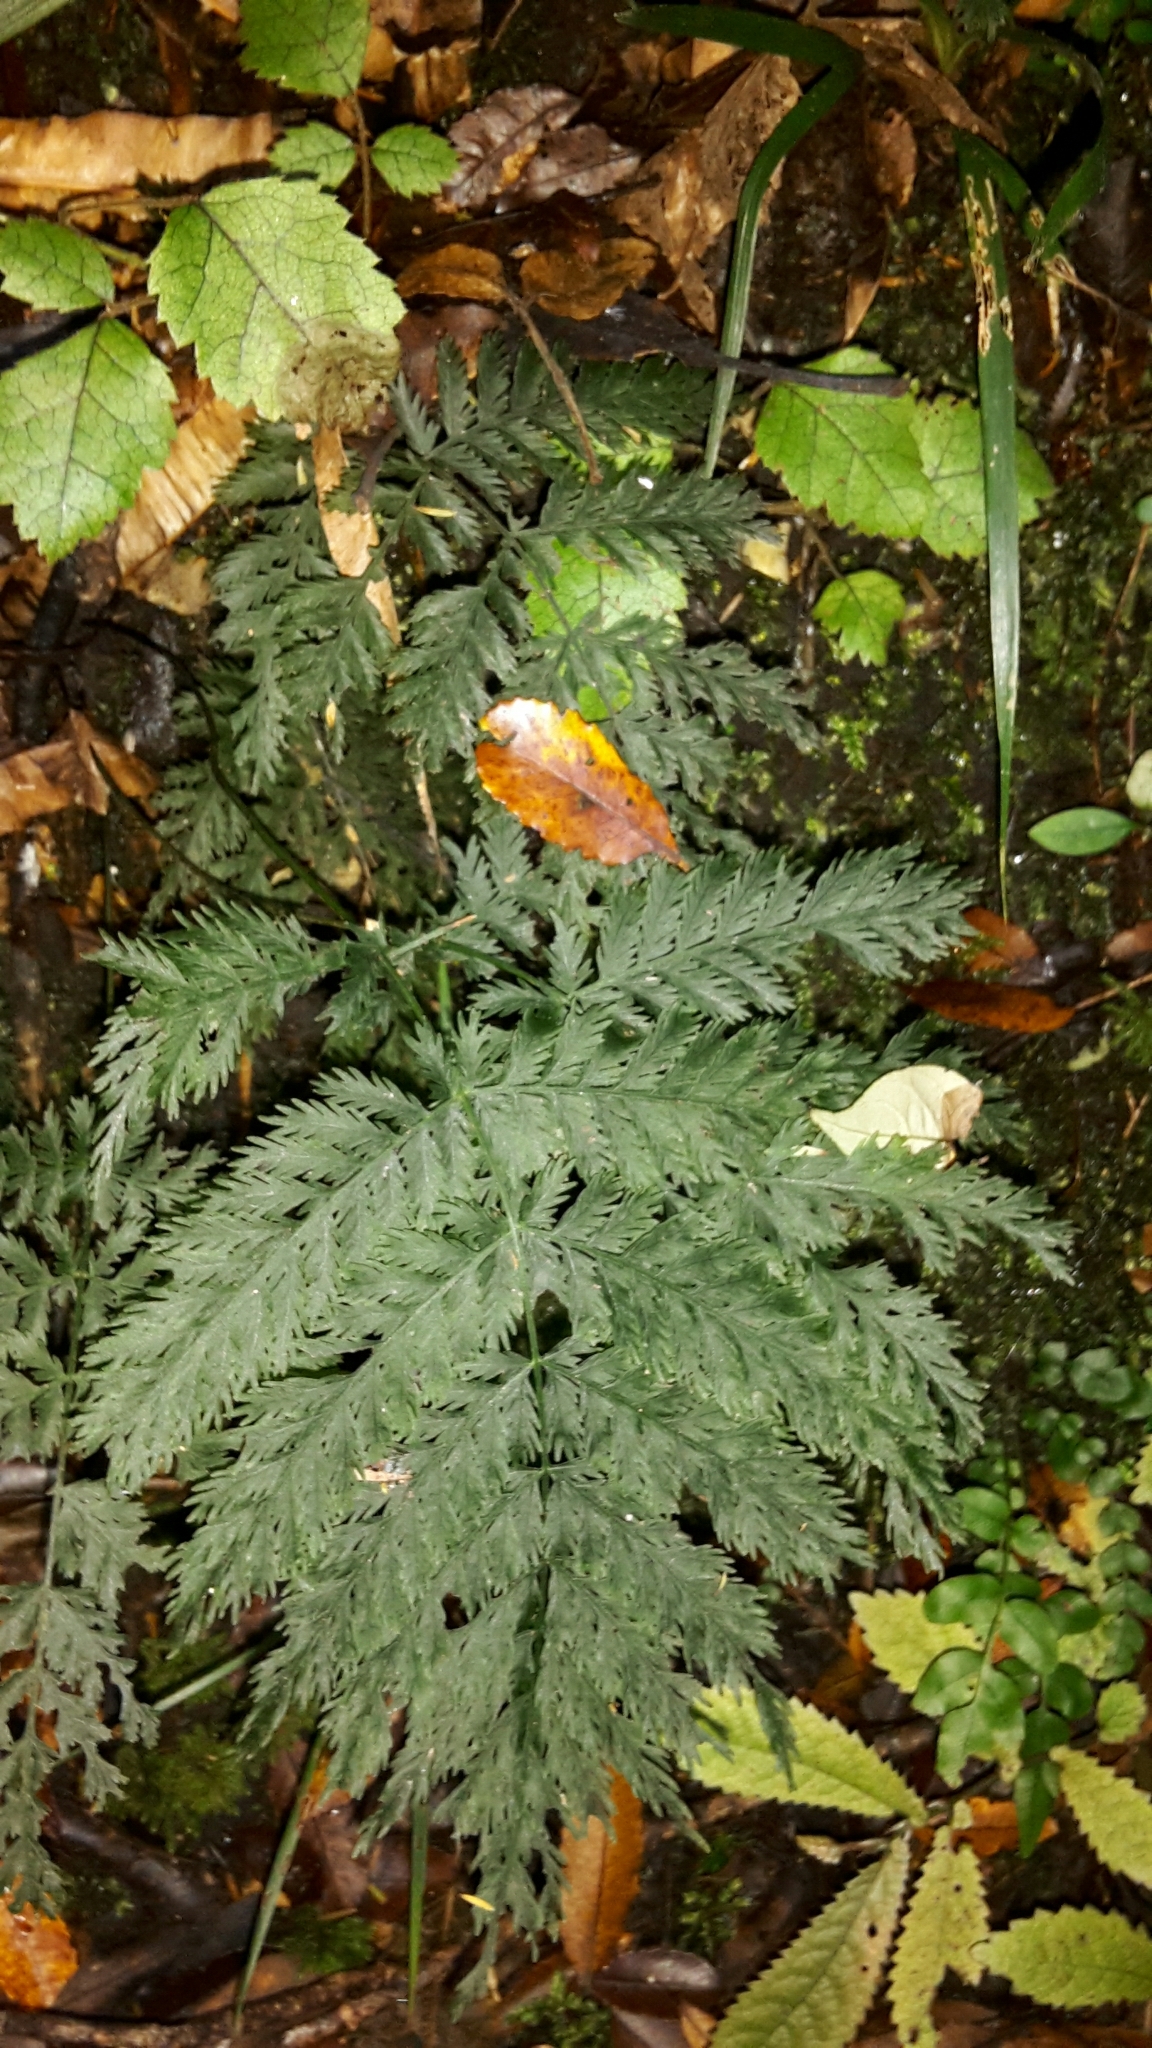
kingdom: Plantae
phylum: Tracheophyta
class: Polypodiopsida
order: Osmundales
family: Osmundaceae
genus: Leptopteris
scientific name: Leptopteris hymenophylloides
